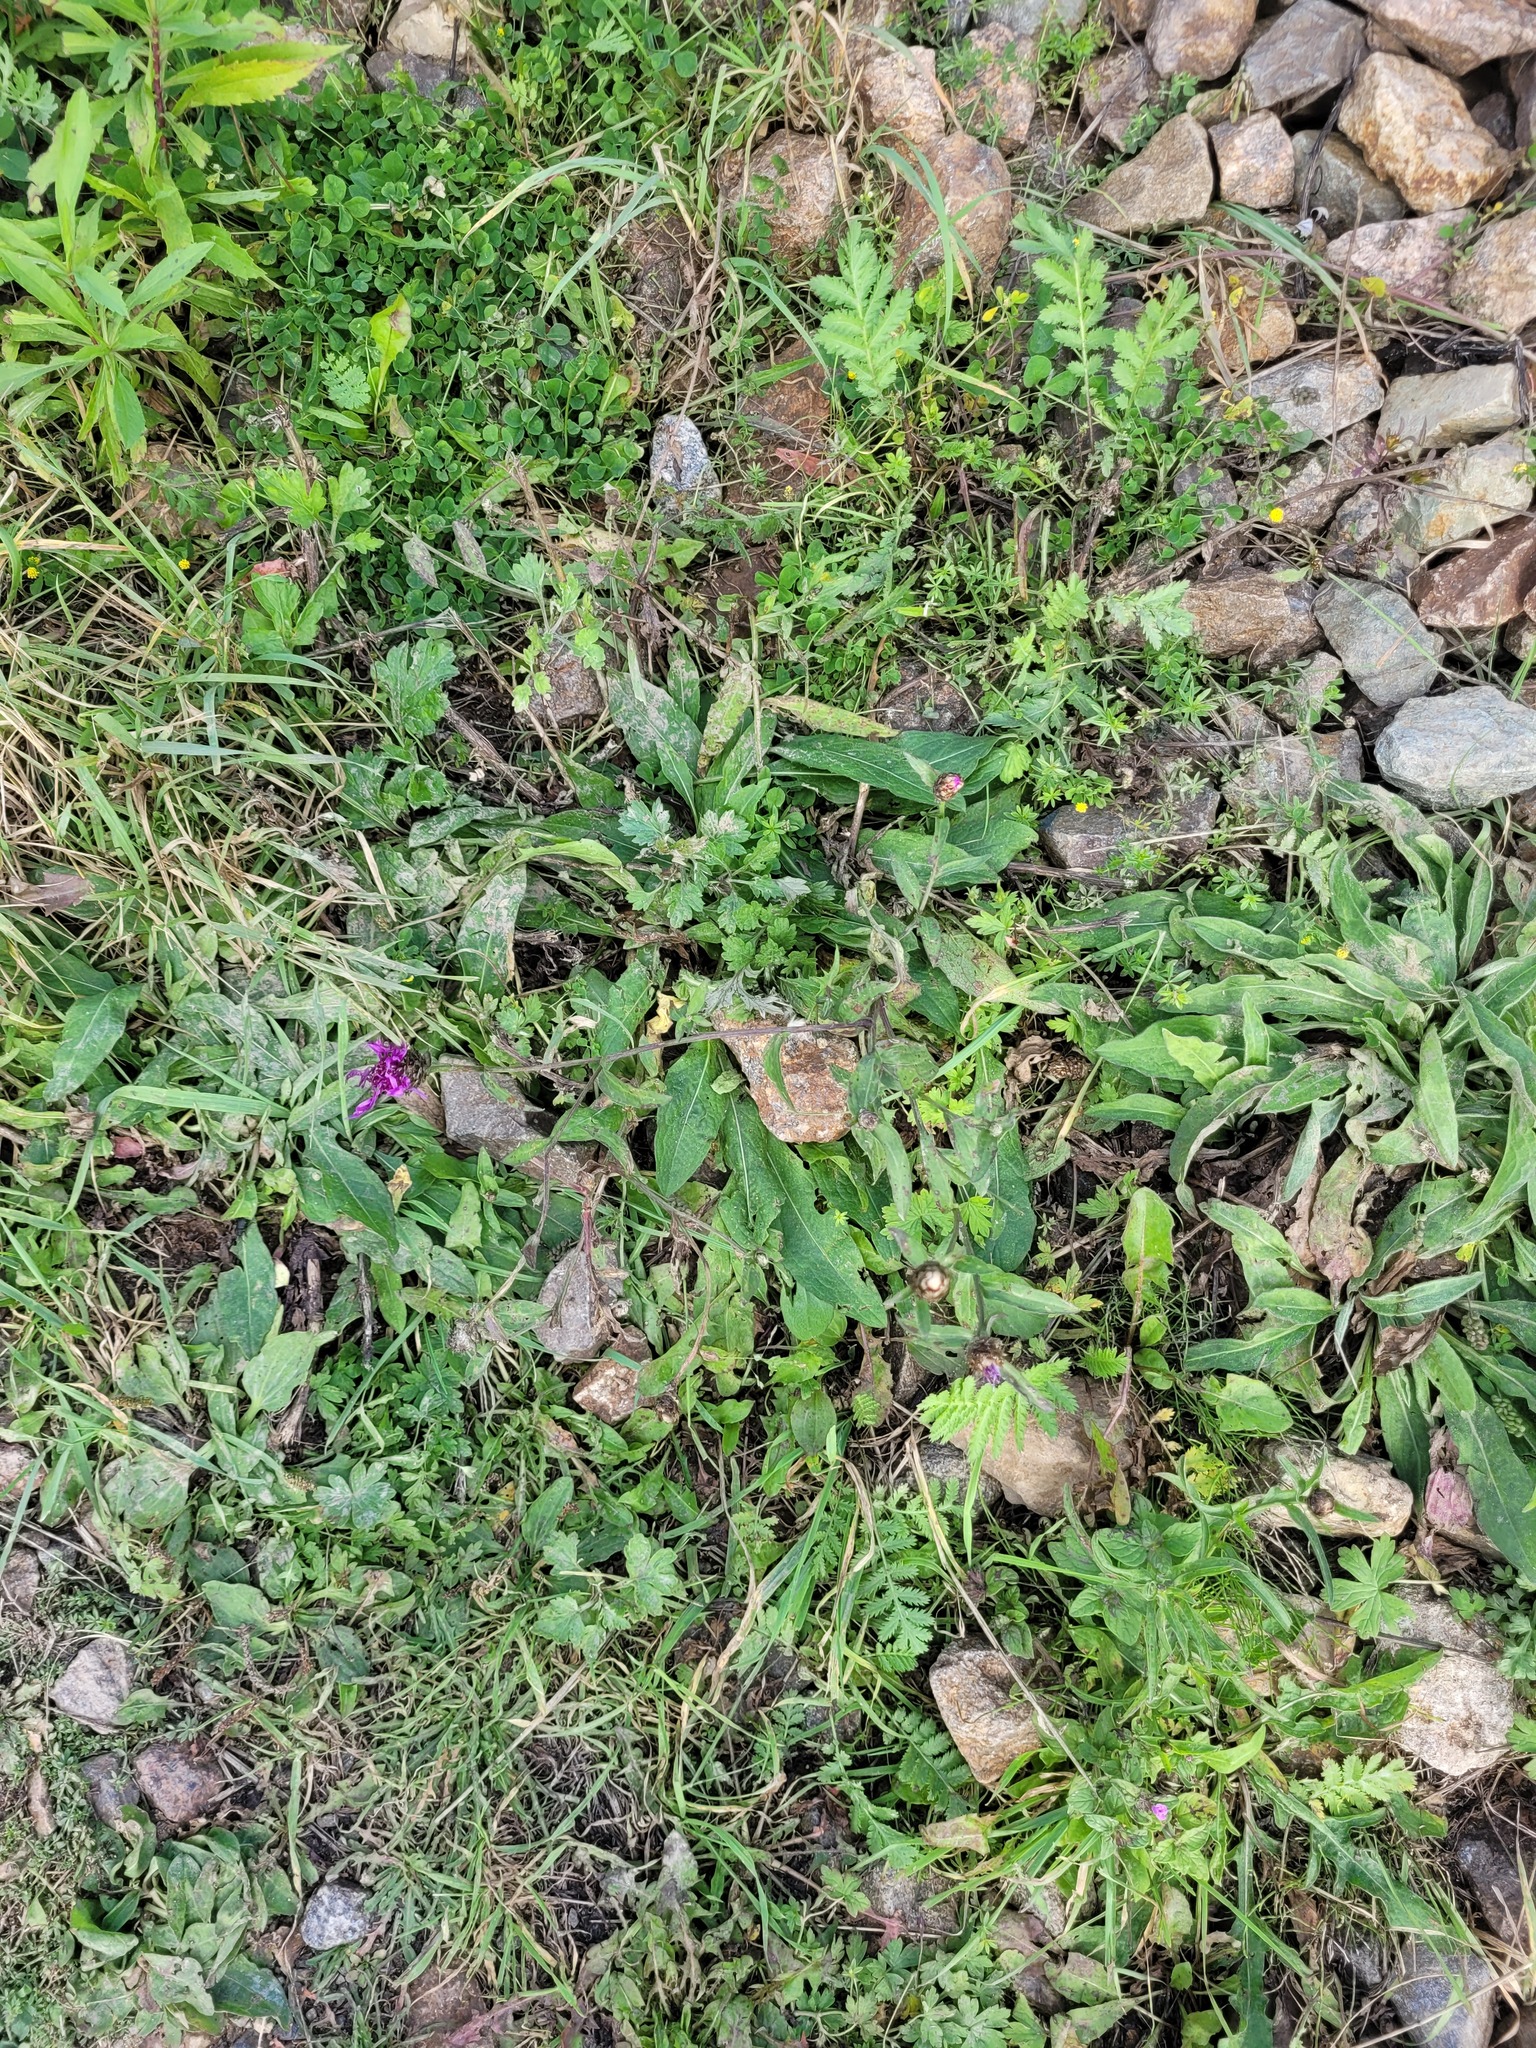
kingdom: Plantae
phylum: Tracheophyta
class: Magnoliopsida
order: Asterales
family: Asteraceae
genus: Centaurea
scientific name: Centaurea jacea
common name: Brown knapweed
